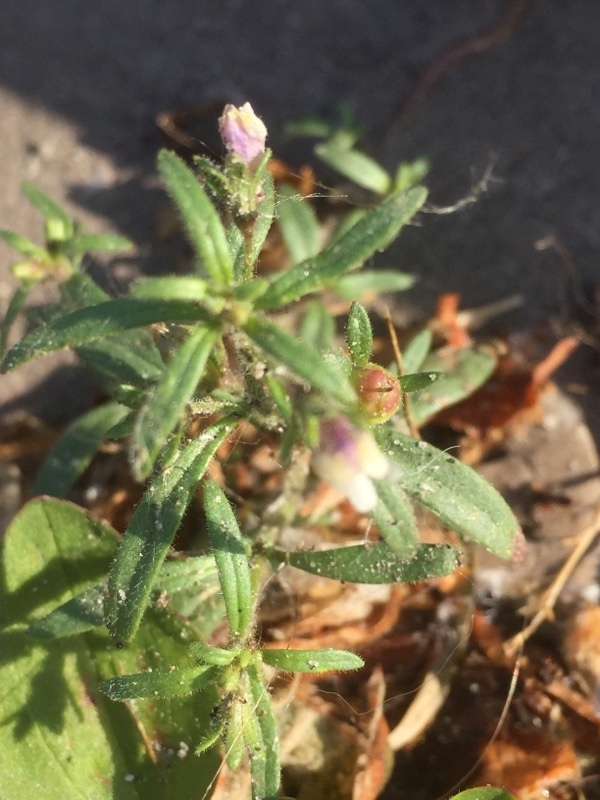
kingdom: Plantae
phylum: Tracheophyta
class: Magnoliopsida
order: Lamiales
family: Plantaginaceae
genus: Chaenorhinum
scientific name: Chaenorhinum minus
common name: Dwarf snapdragon
